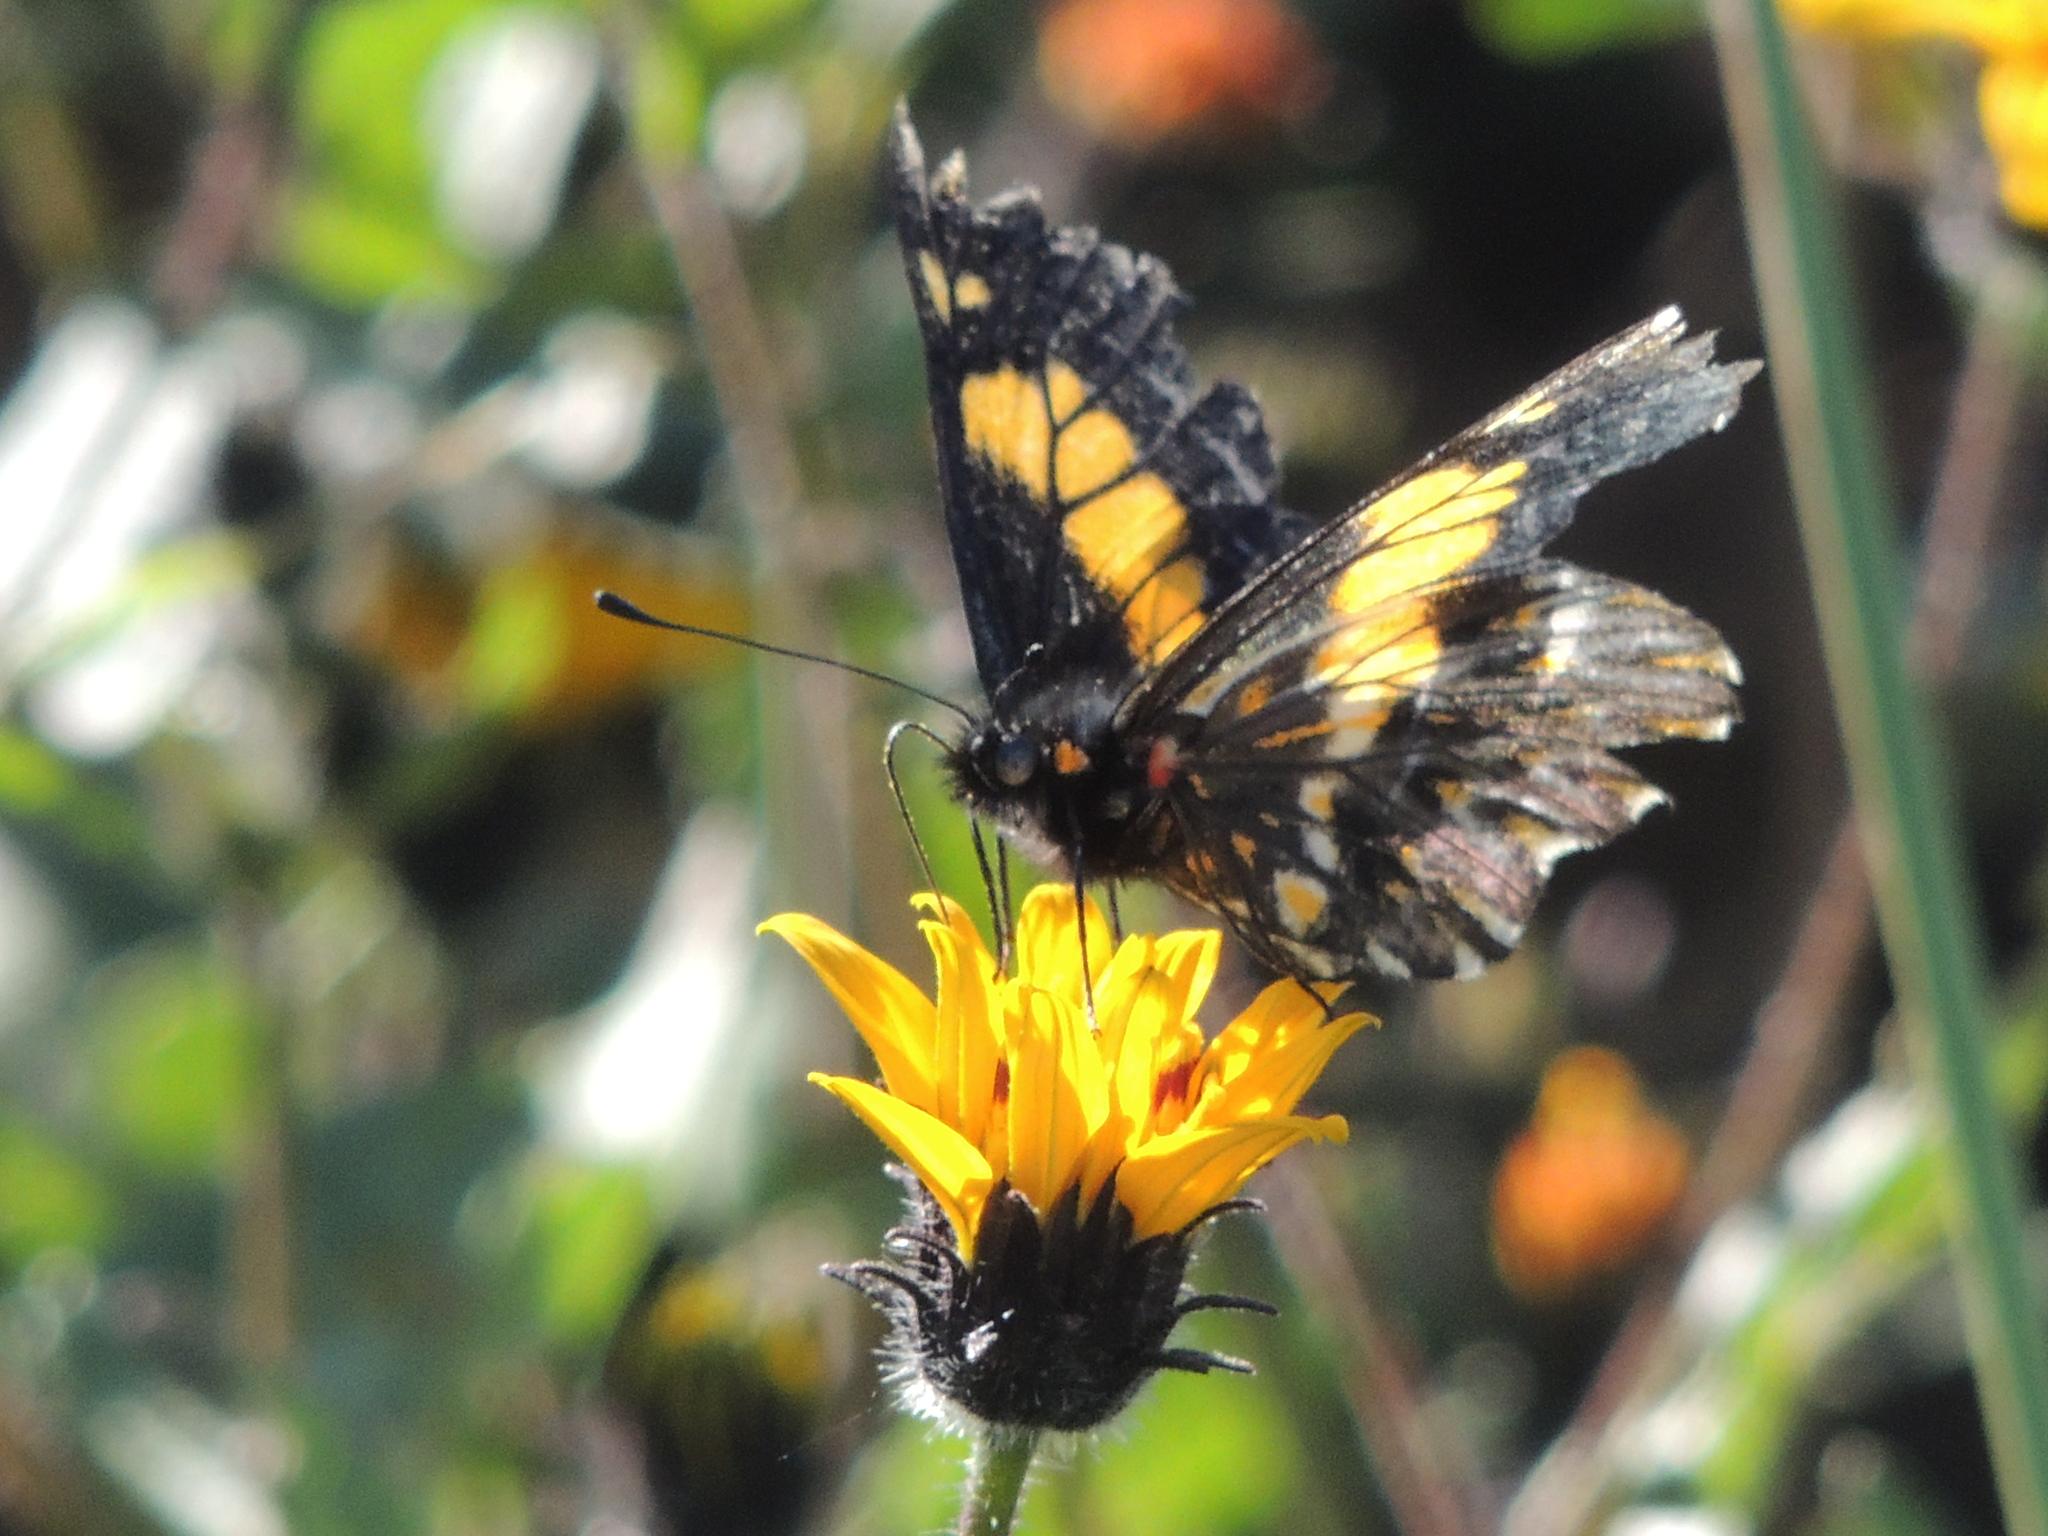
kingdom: Animalia
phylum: Arthropoda
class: Insecta
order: Lepidoptera
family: Pieridae
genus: Archonias
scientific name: Archonias teutila
